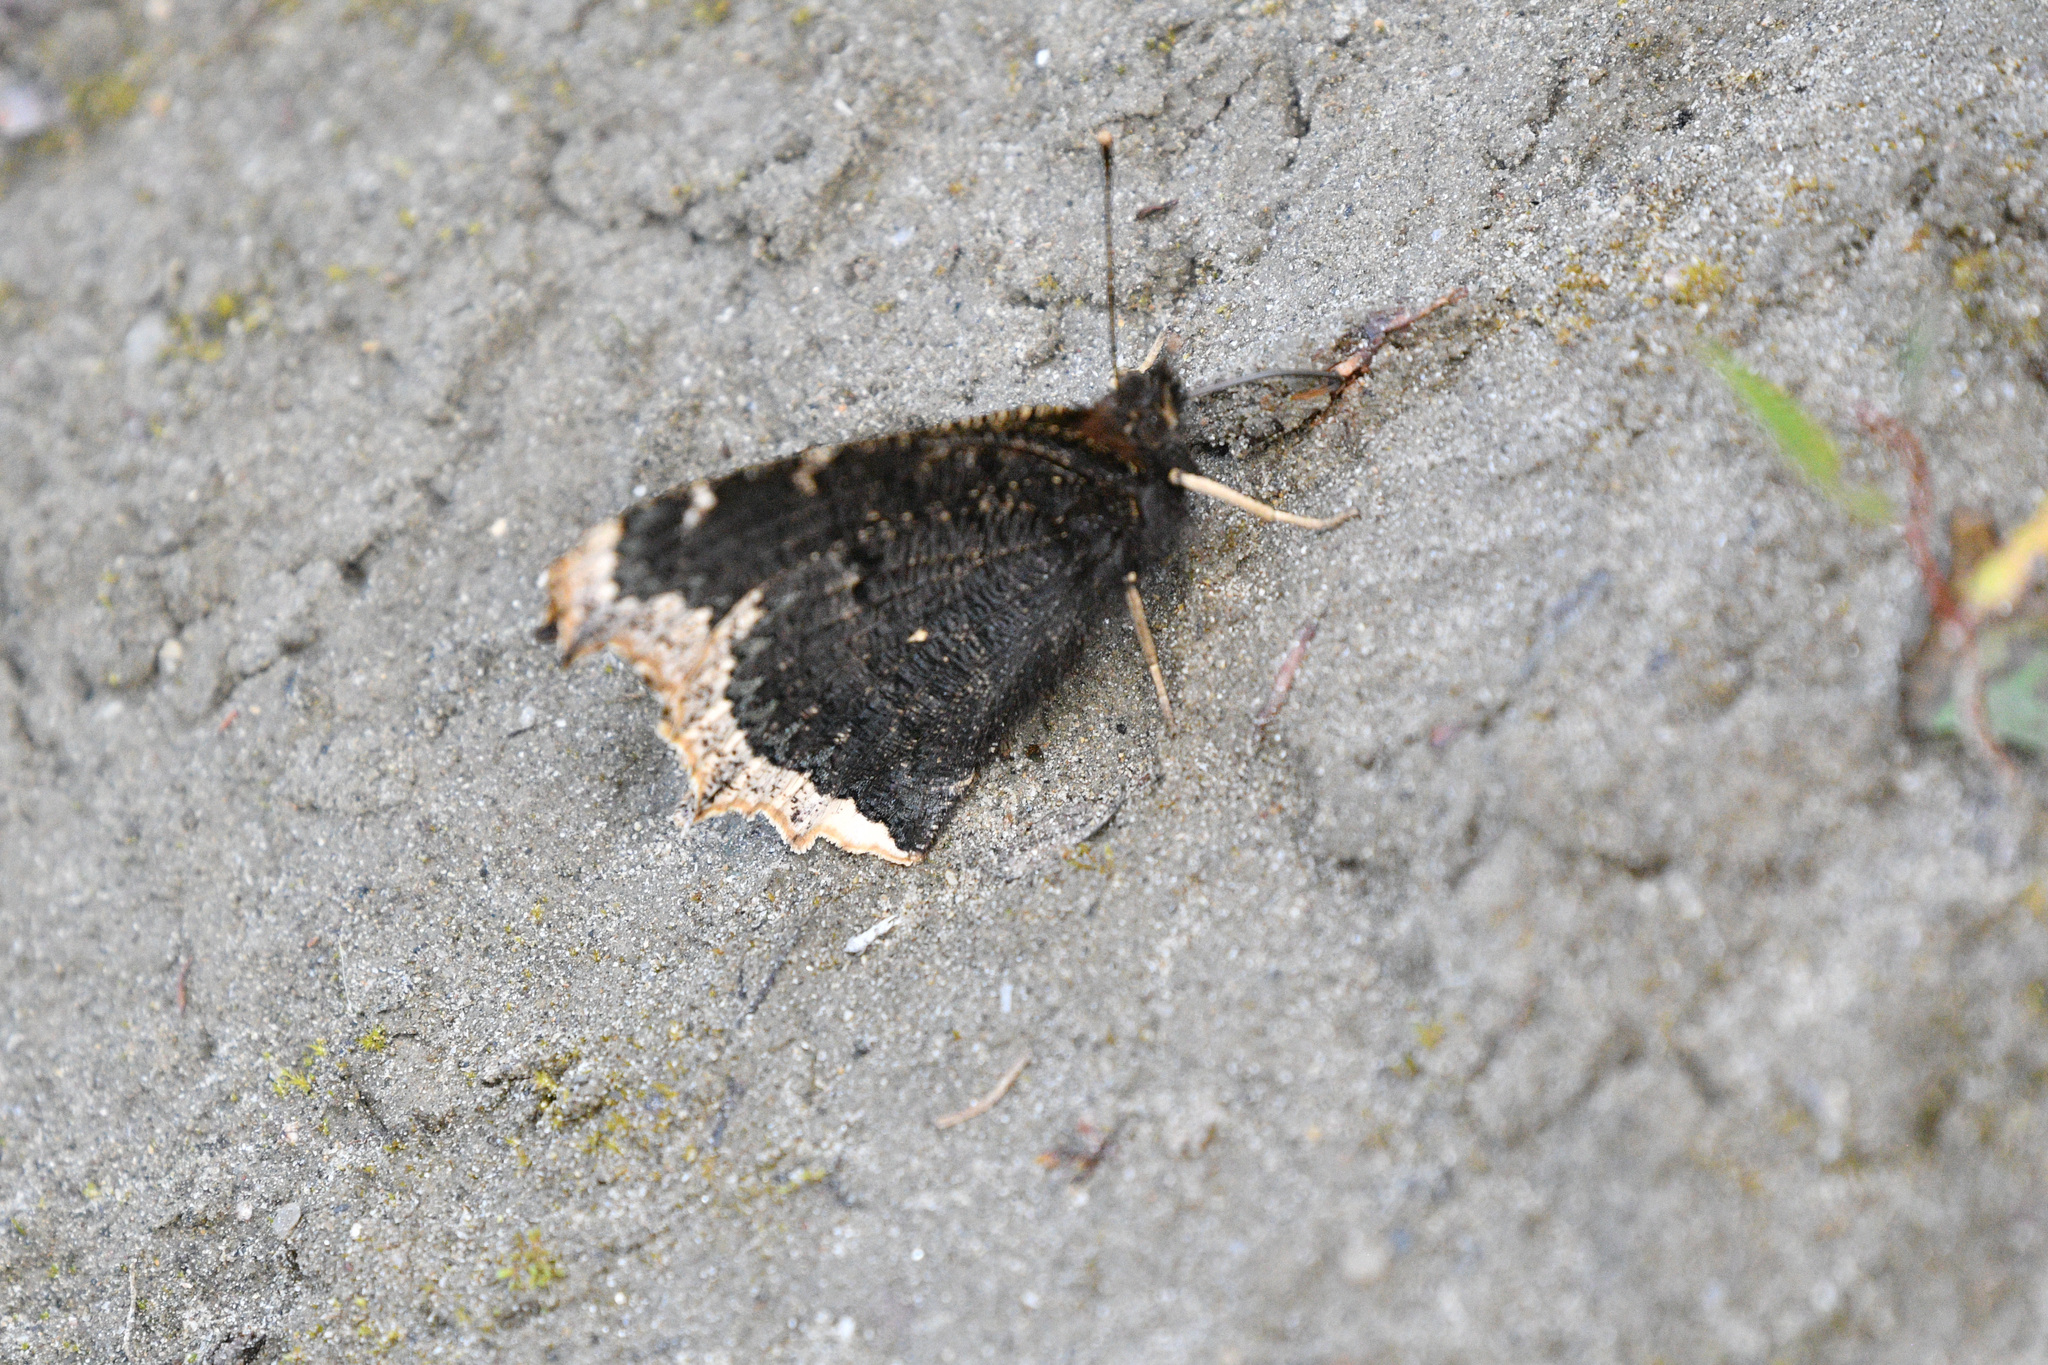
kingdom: Animalia
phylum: Arthropoda
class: Insecta
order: Lepidoptera
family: Nymphalidae
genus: Nymphalis
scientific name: Nymphalis antiopa
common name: Camberwell beauty
